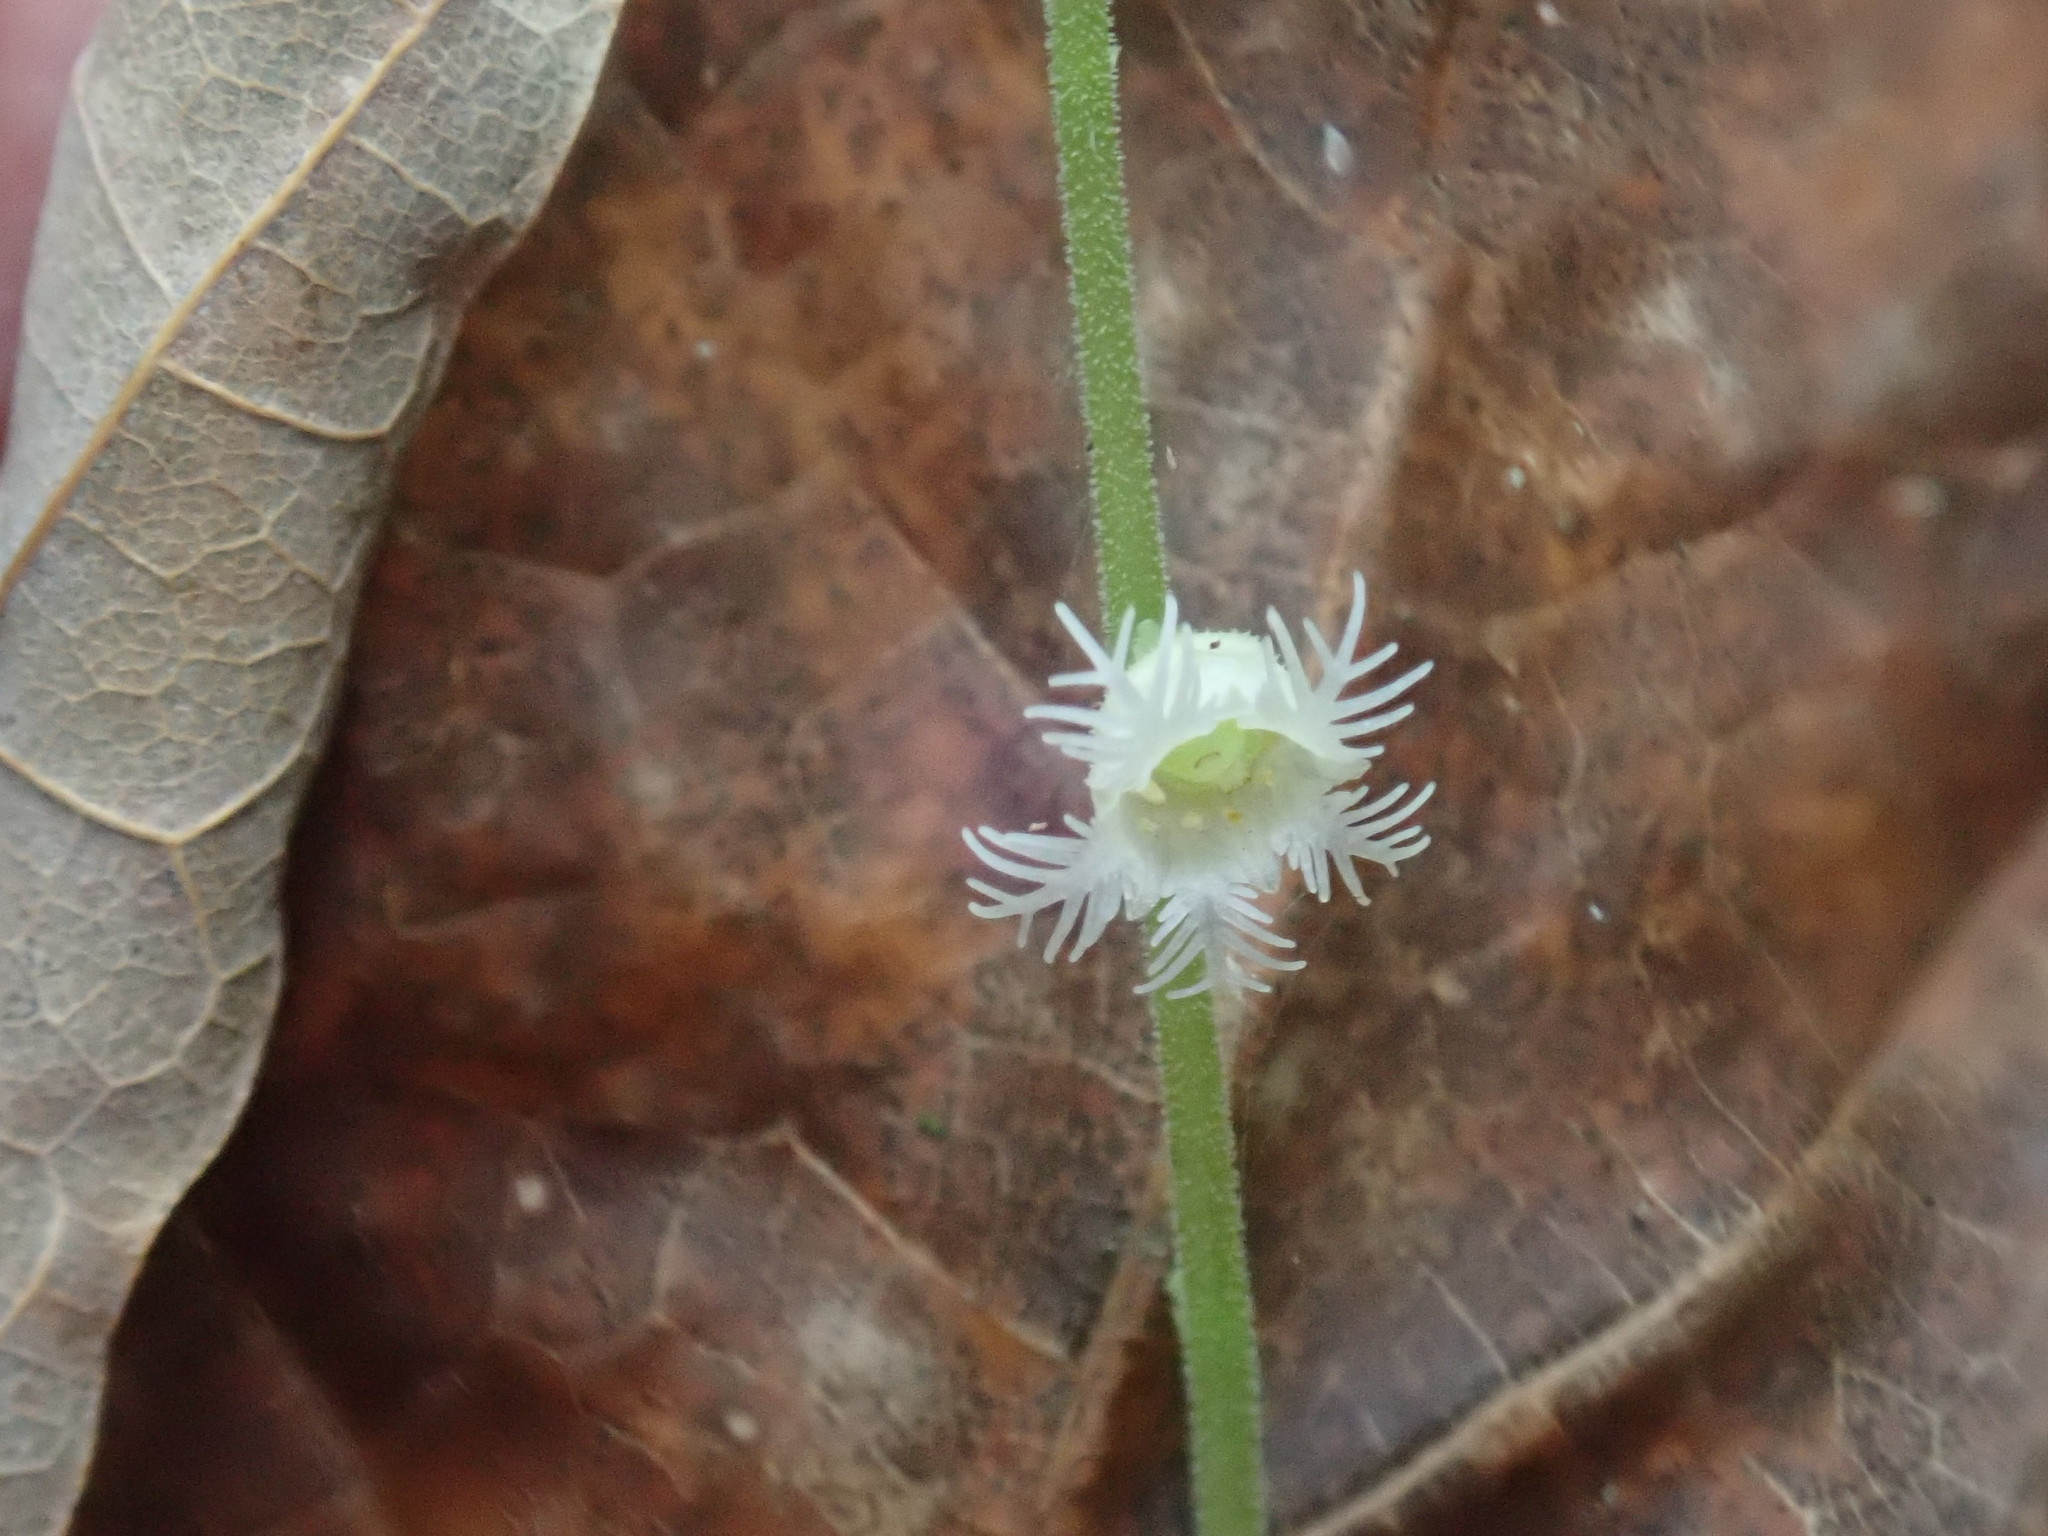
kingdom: Plantae
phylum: Tracheophyta
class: Magnoliopsida
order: Saxifragales
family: Saxifragaceae
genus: Mitella
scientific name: Mitella diphylla
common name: Coolwort
